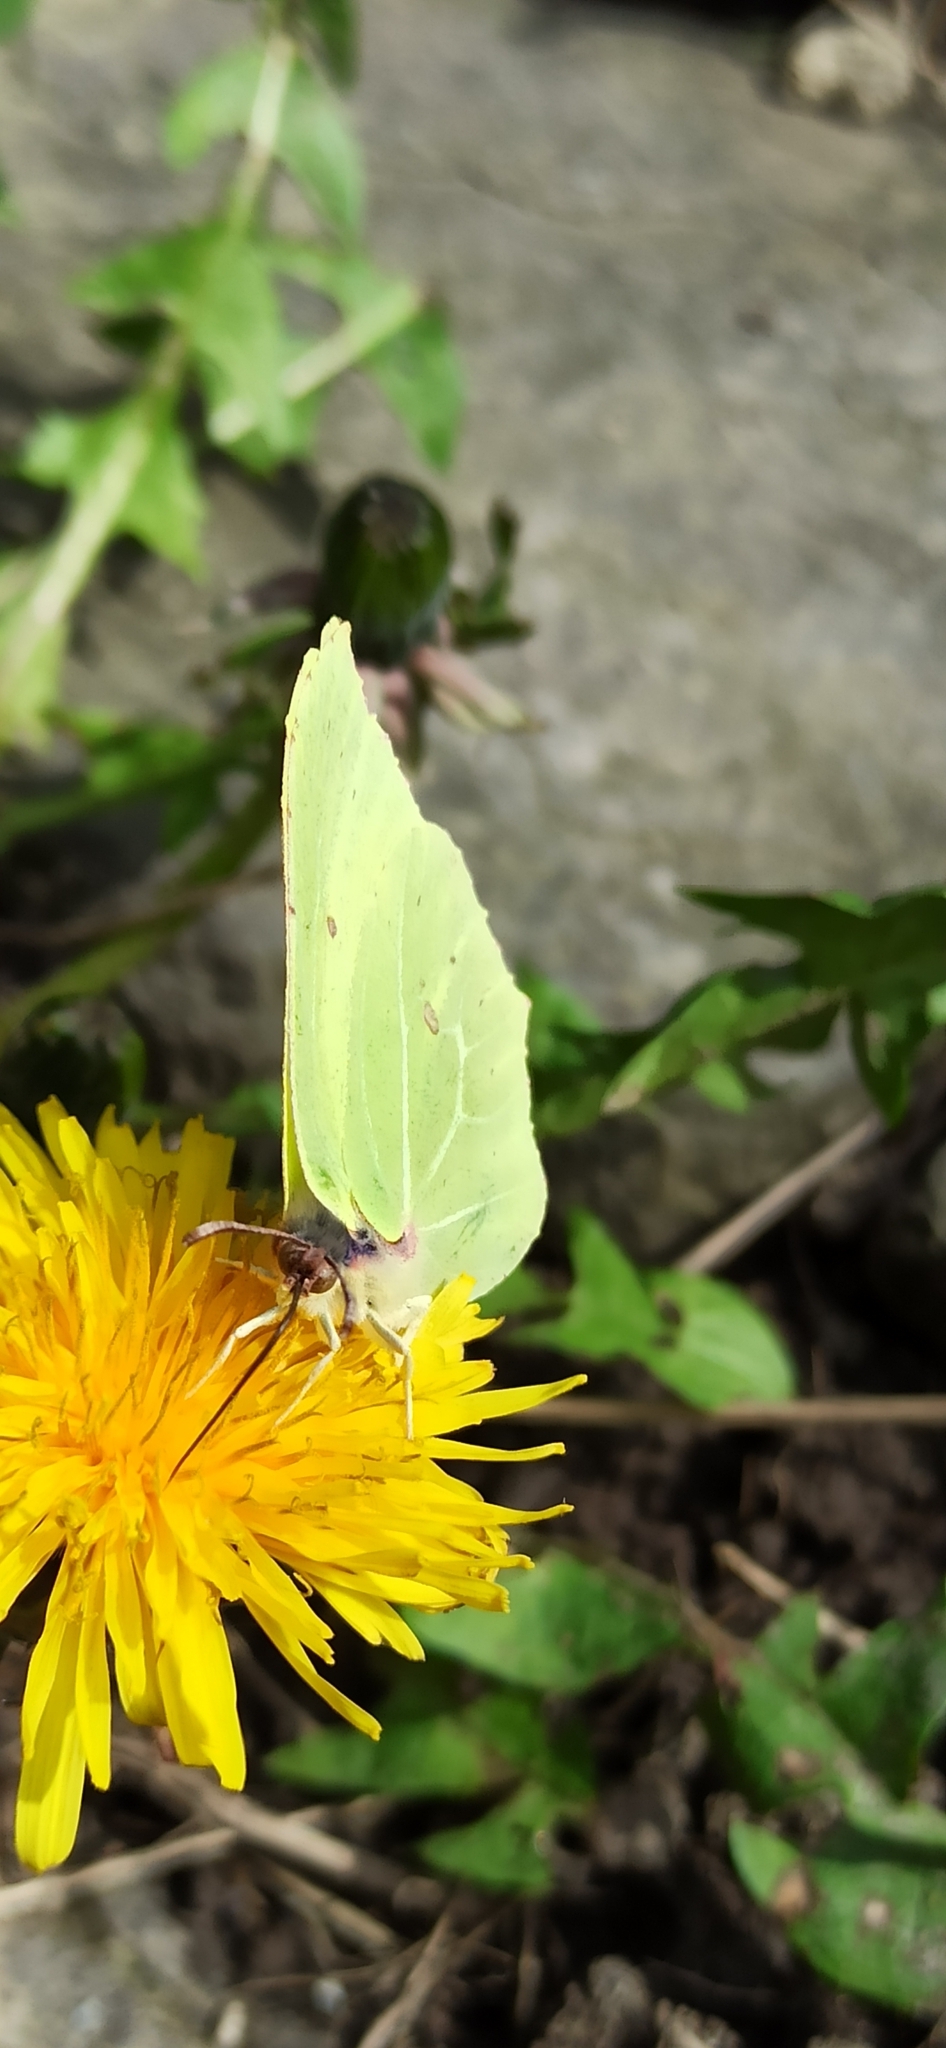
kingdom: Animalia
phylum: Arthropoda
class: Insecta
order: Lepidoptera
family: Pieridae
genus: Gonepteryx
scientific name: Gonepteryx rhamni
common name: Brimstone
